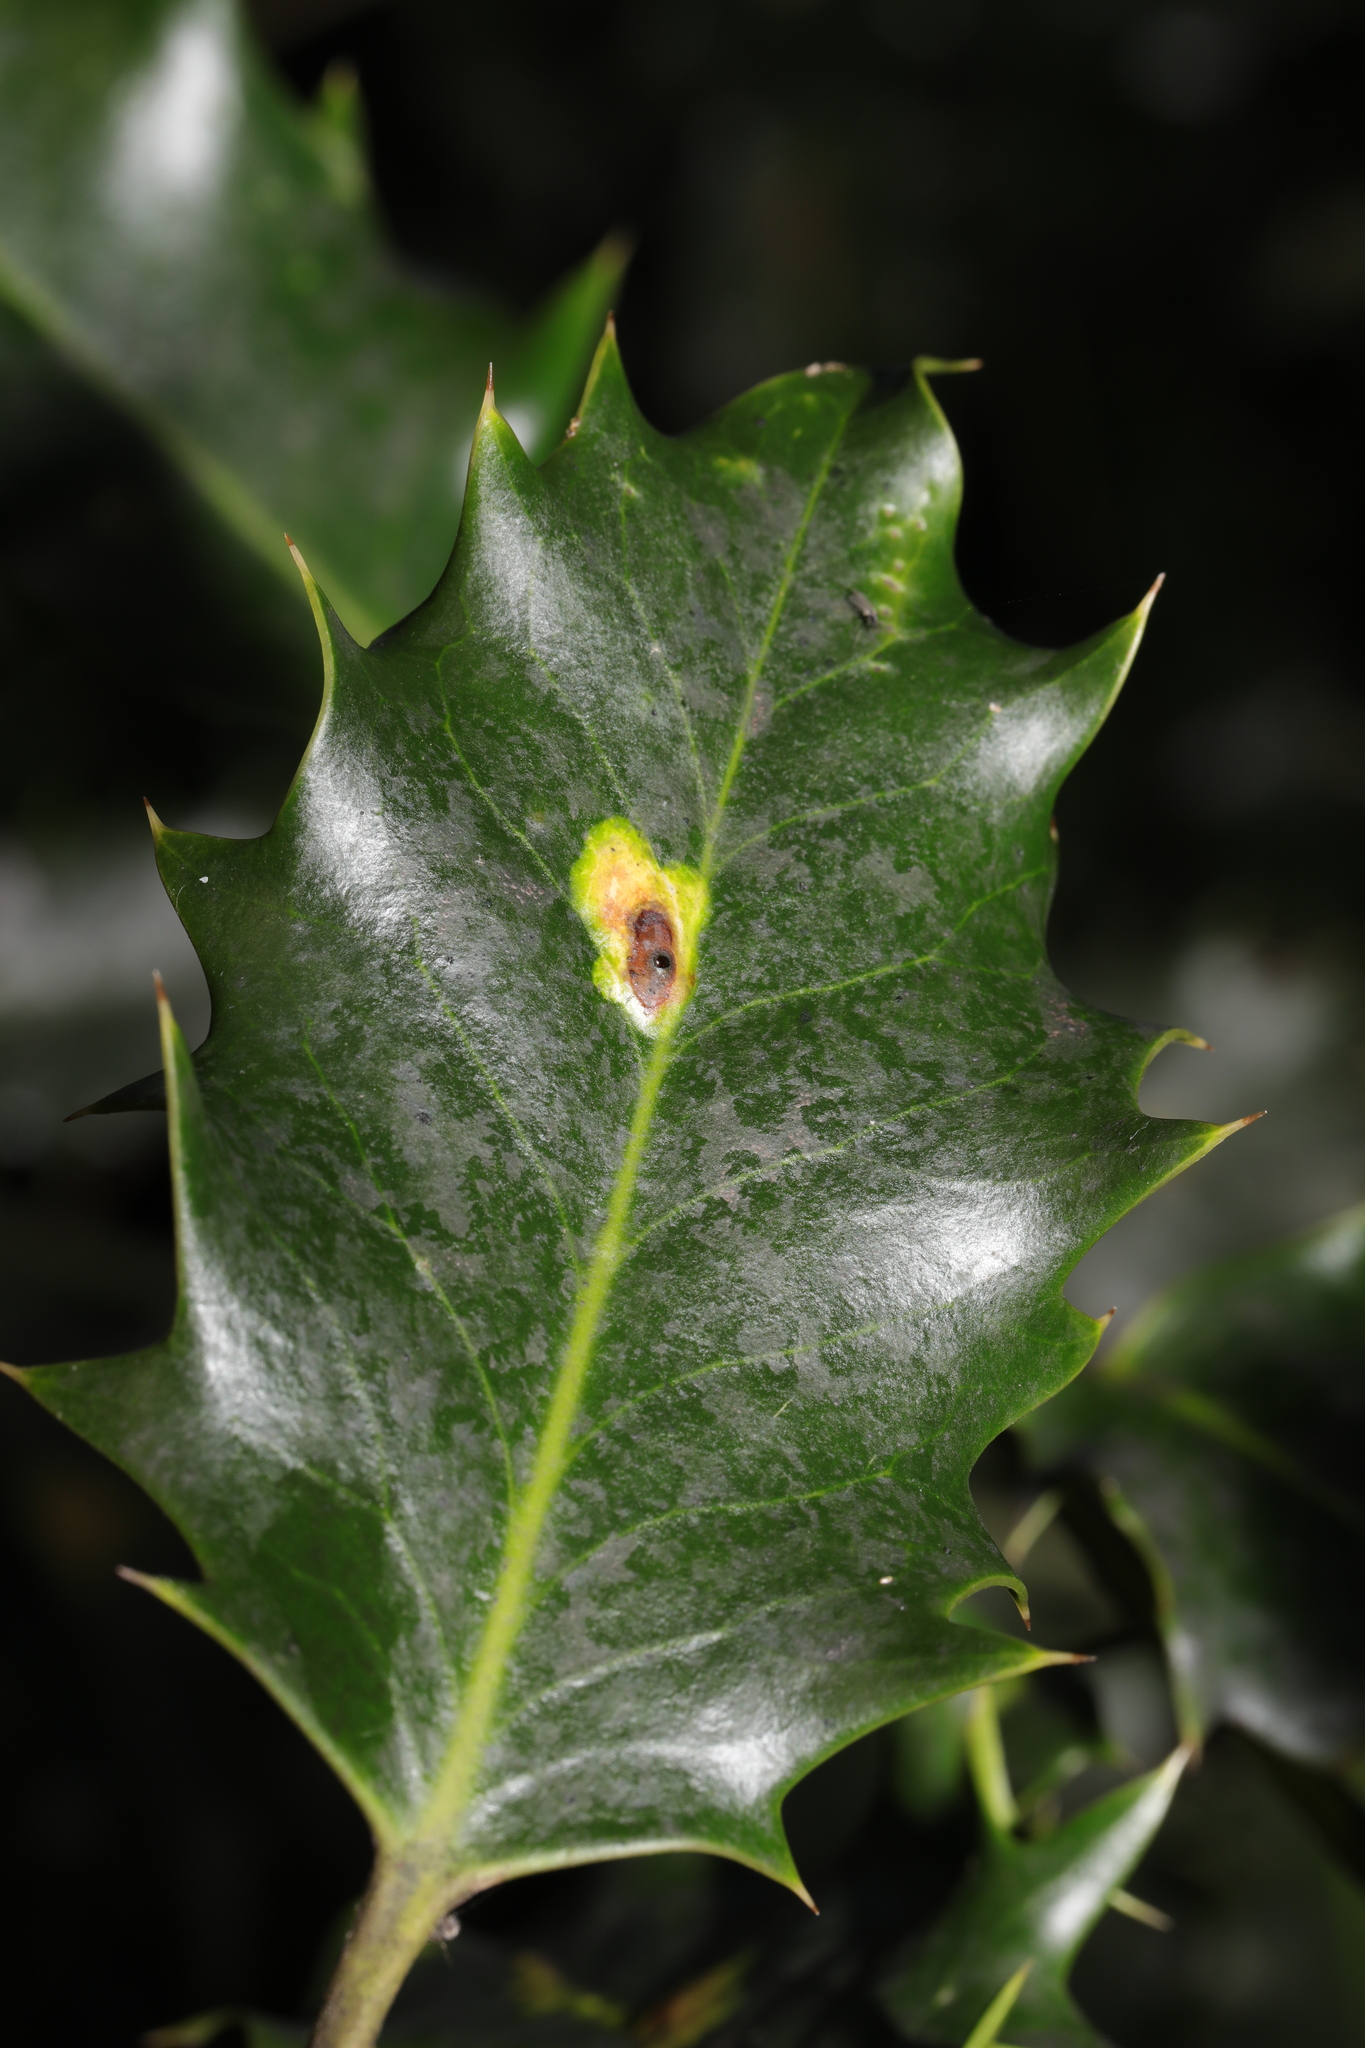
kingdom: Animalia
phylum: Arthropoda
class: Insecta
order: Diptera
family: Agromyzidae
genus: Phytomyza
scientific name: Phytomyza ilicis
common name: Holly leafminer
